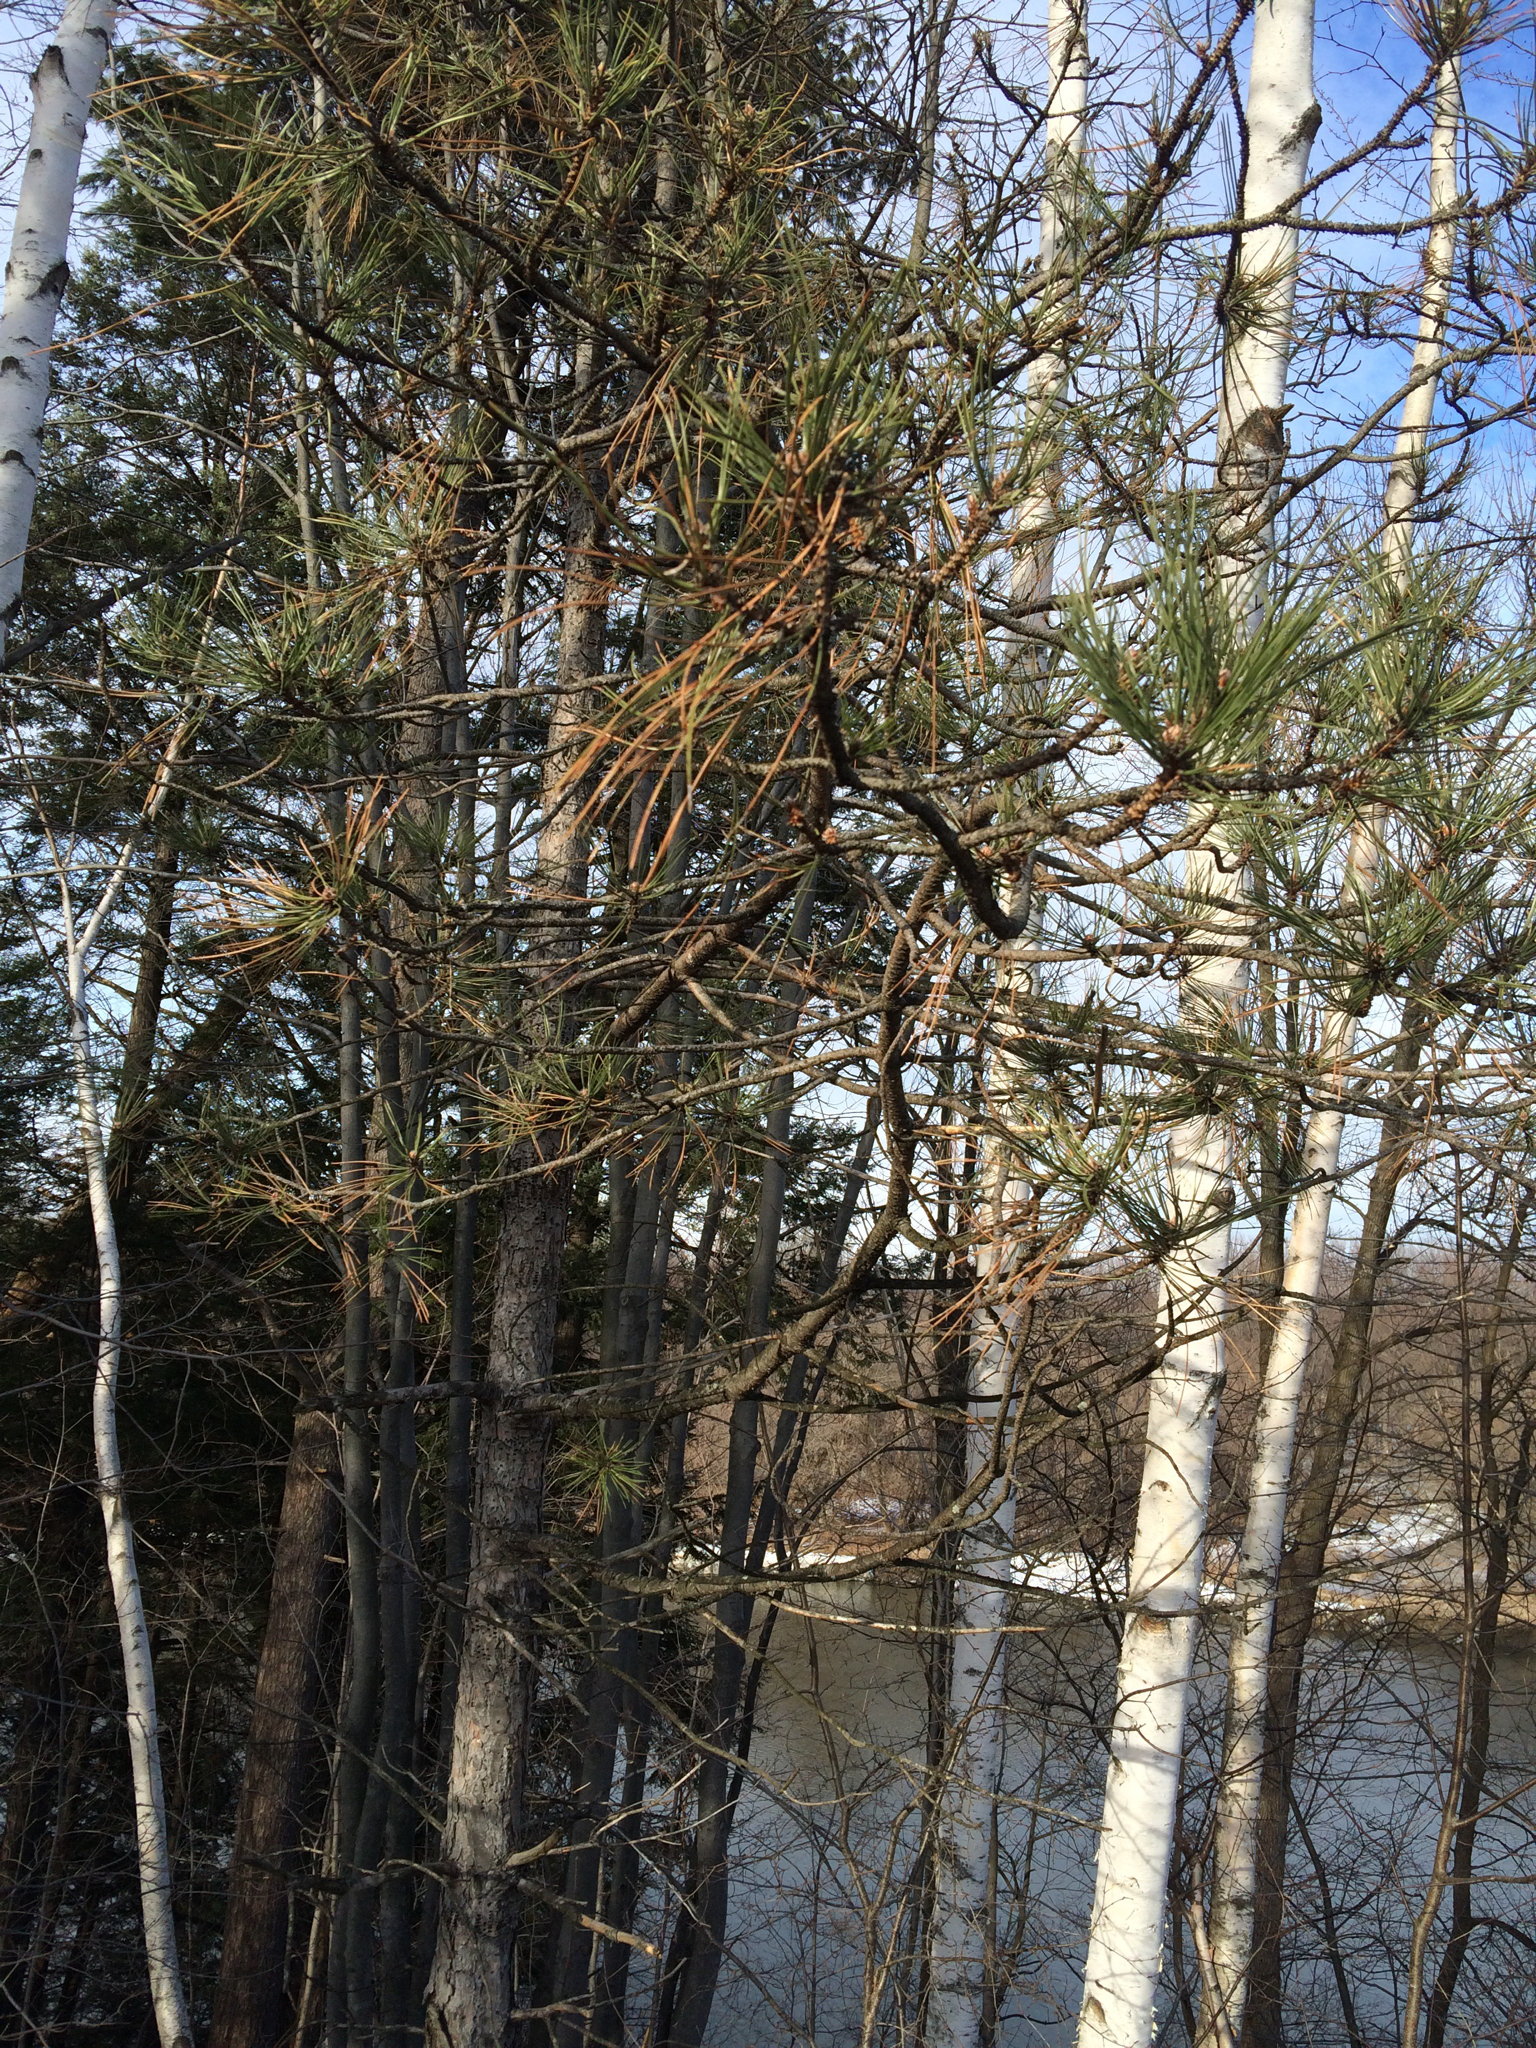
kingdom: Plantae
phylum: Tracheophyta
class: Pinopsida
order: Pinales
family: Pinaceae
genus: Pinus
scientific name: Pinus nigra
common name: Austrian pine
